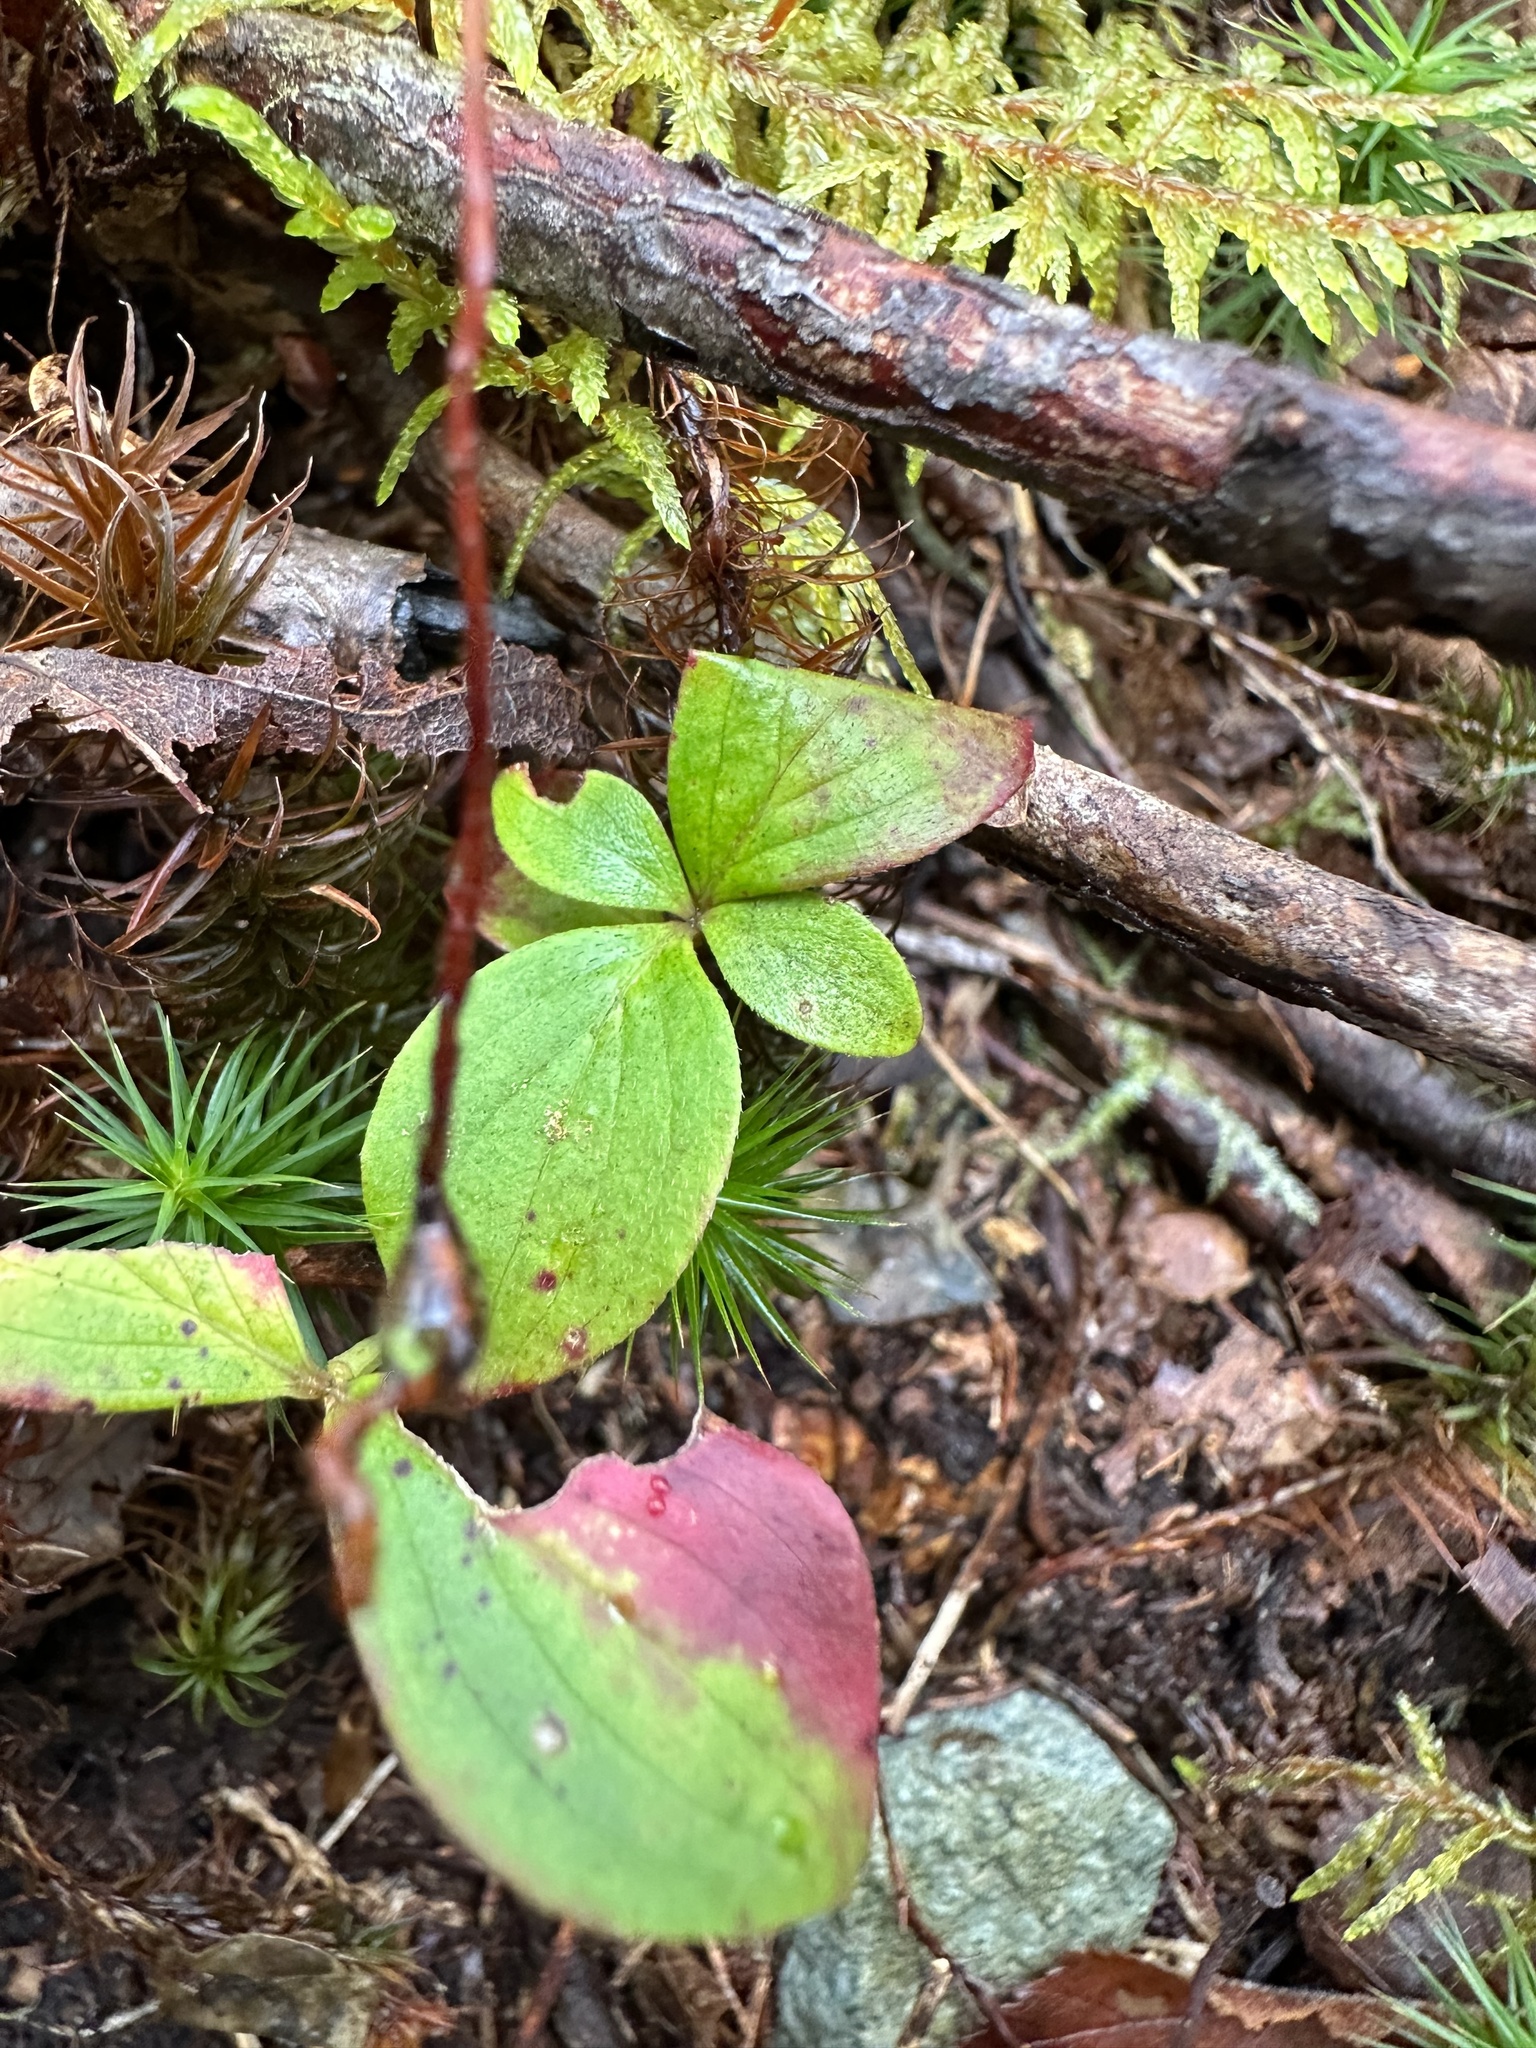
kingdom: Plantae
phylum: Tracheophyta
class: Magnoliopsida
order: Cornales
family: Cornaceae
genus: Cornus
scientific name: Cornus canadensis
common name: Creeping dogwood
